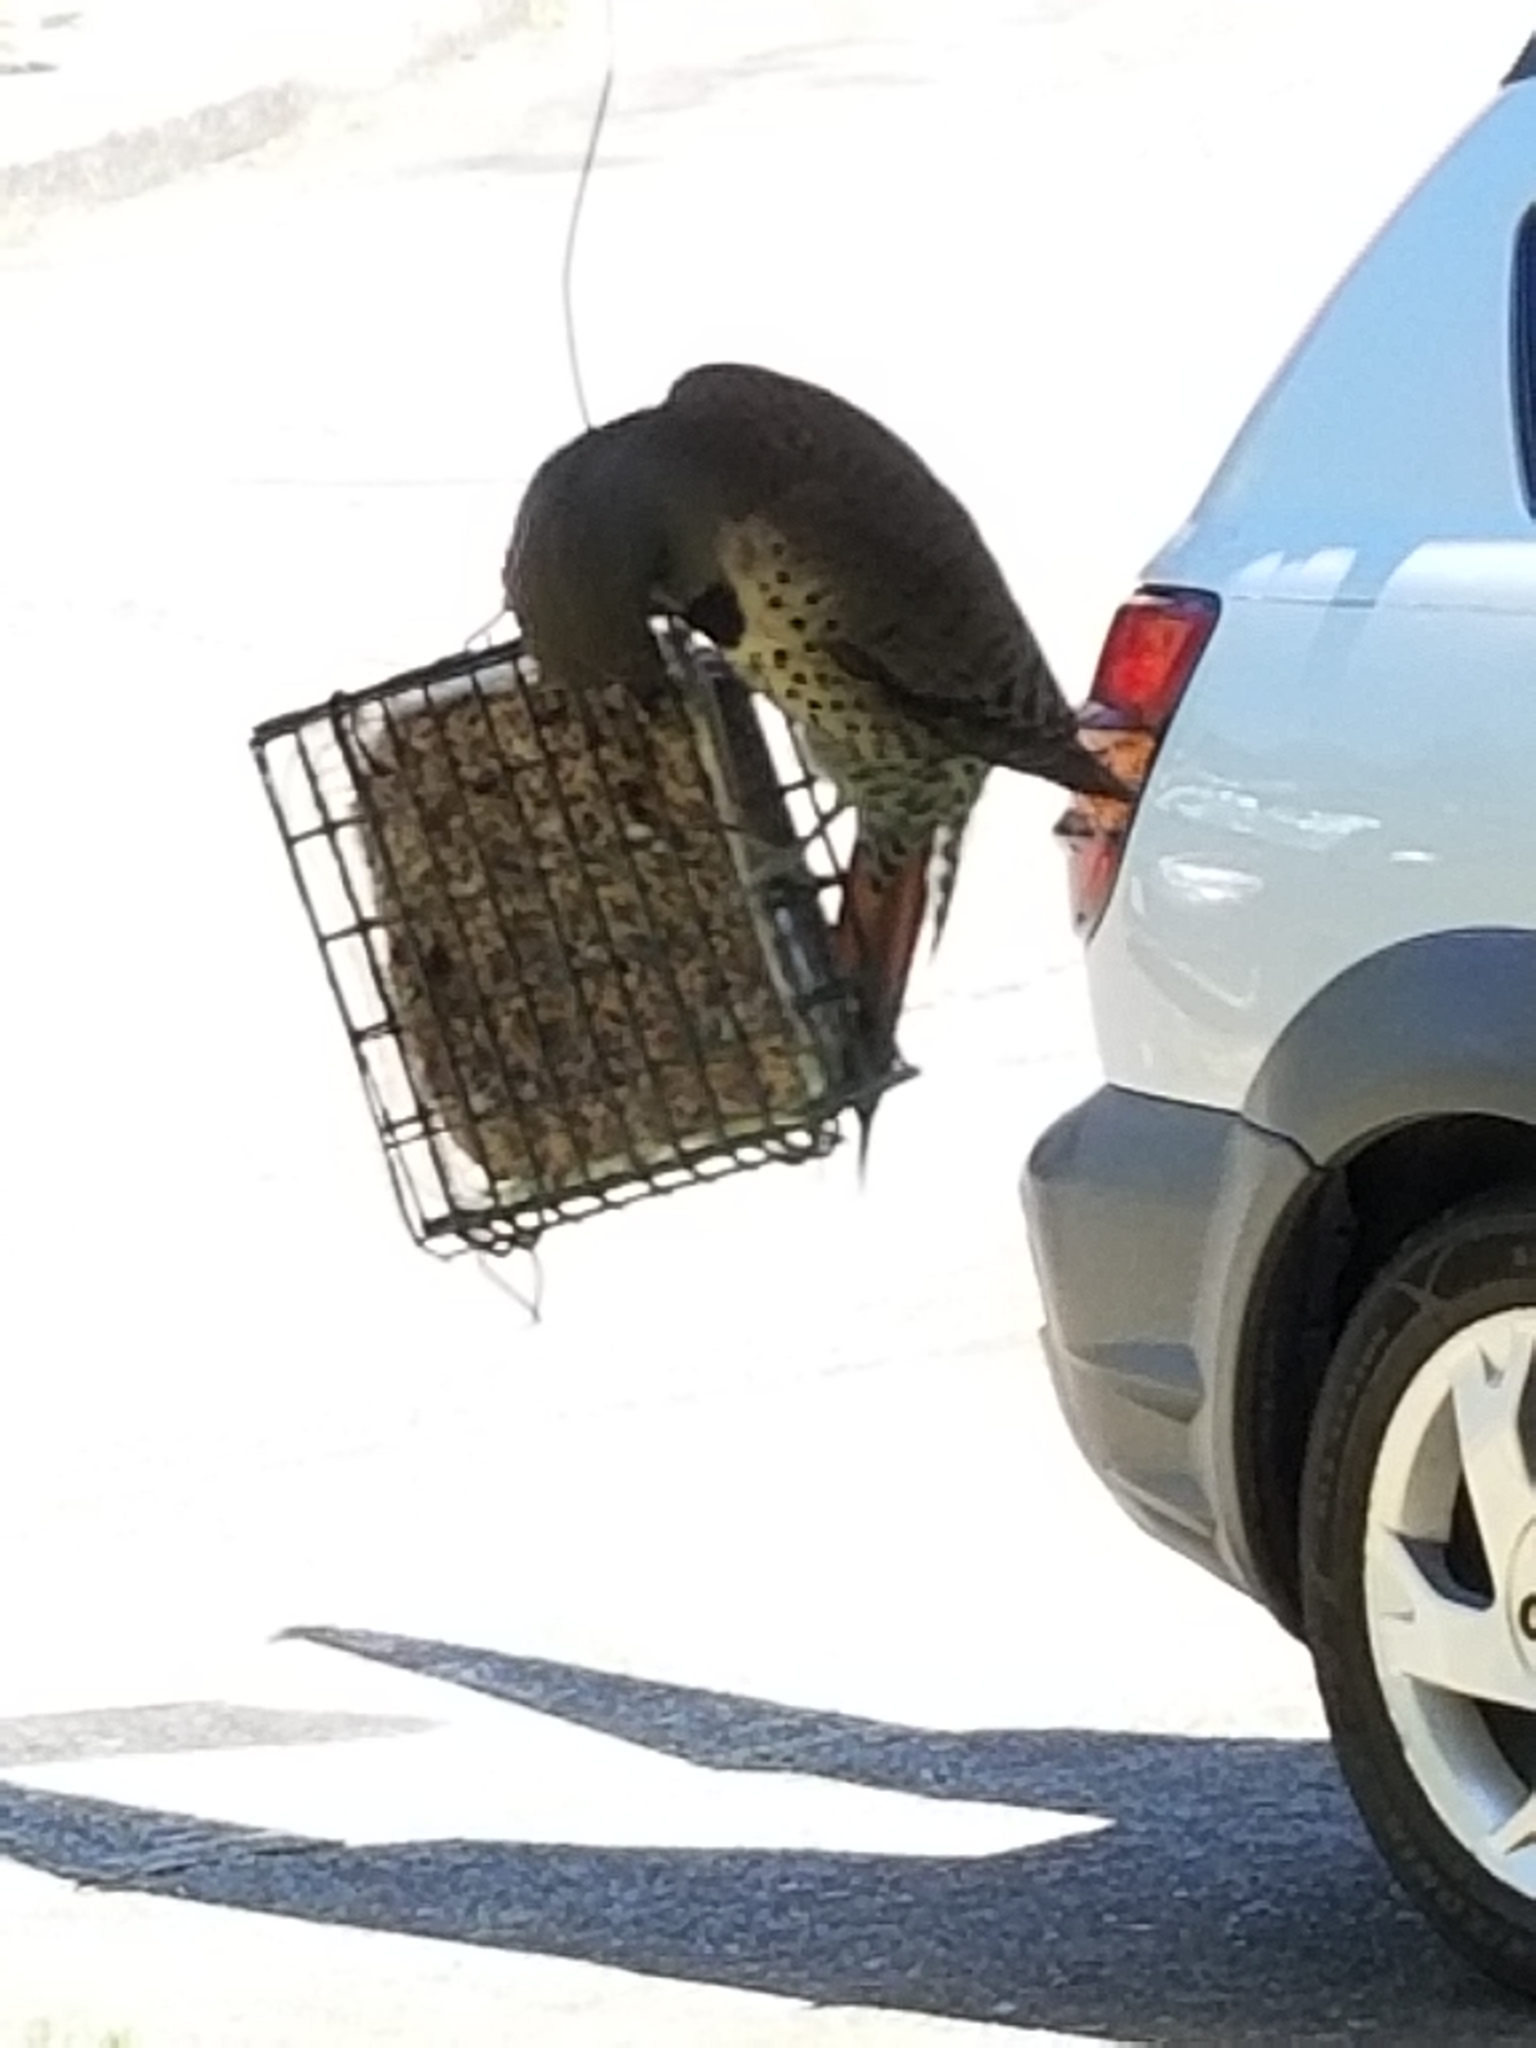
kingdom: Animalia
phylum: Chordata
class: Aves
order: Piciformes
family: Picidae
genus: Colaptes
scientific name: Colaptes auratus
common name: Northern flicker
